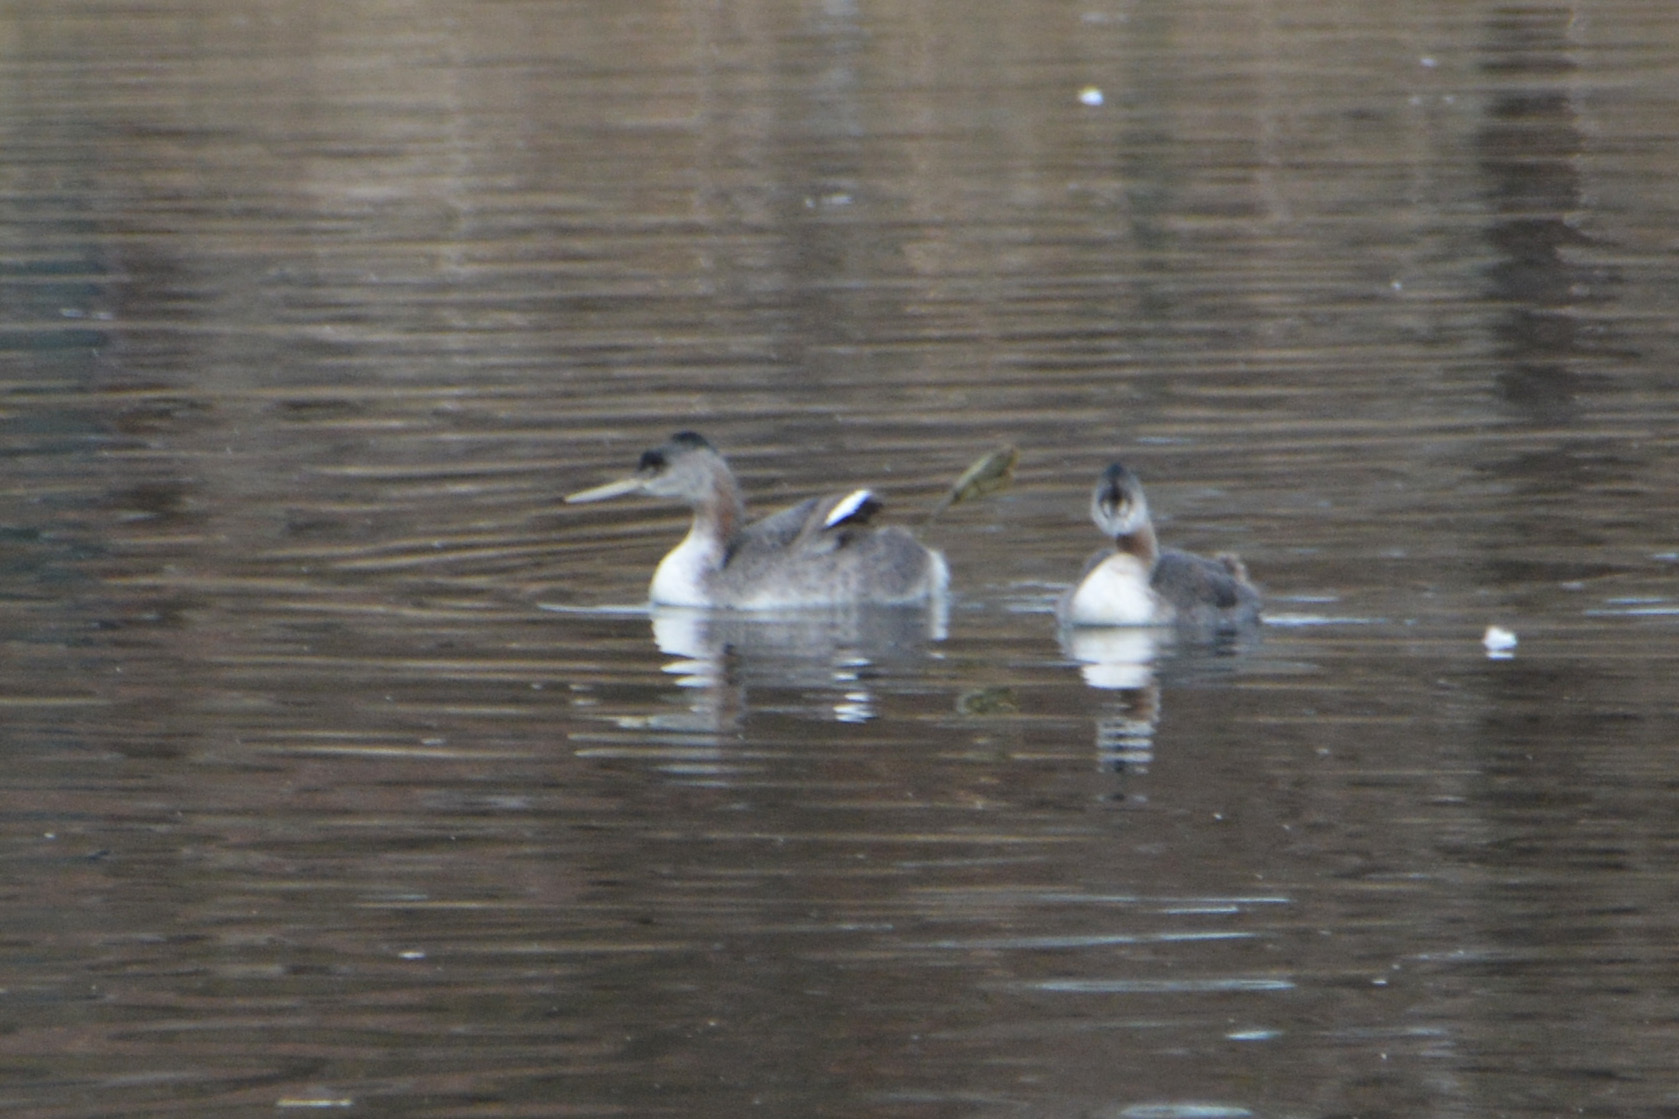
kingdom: Animalia
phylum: Chordata
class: Aves
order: Podicipediformes
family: Podicipedidae
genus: Podiceps
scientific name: Podiceps major
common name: Great grebe
